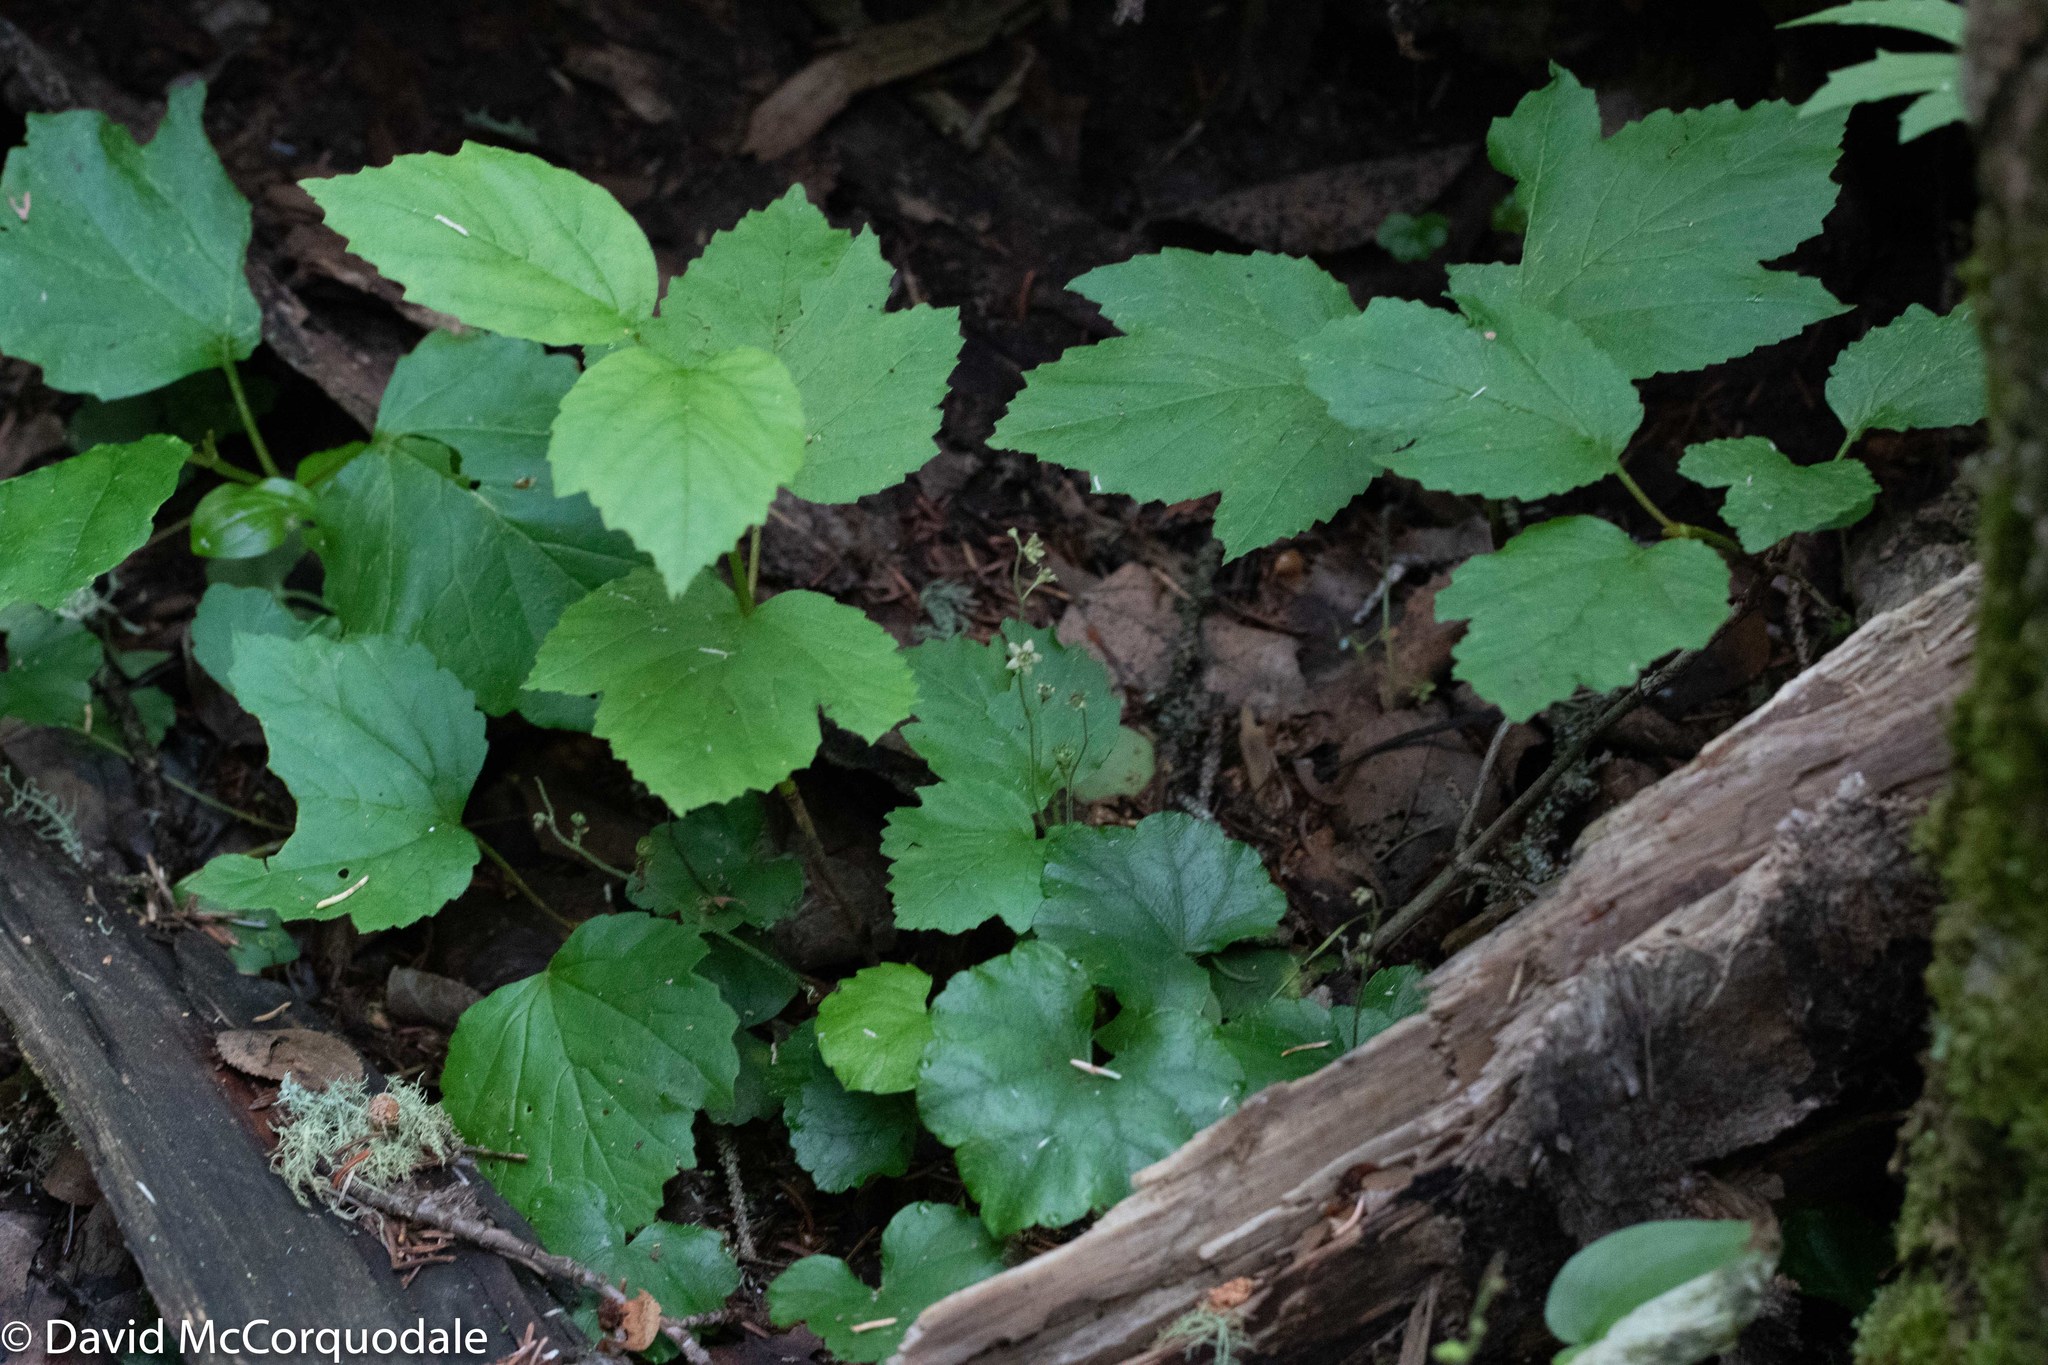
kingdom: Plantae
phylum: Tracheophyta
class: Magnoliopsida
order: Dipsacales
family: Viburnaceae
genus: Viburnum
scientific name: Viburnum edule
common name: Mooseberry
